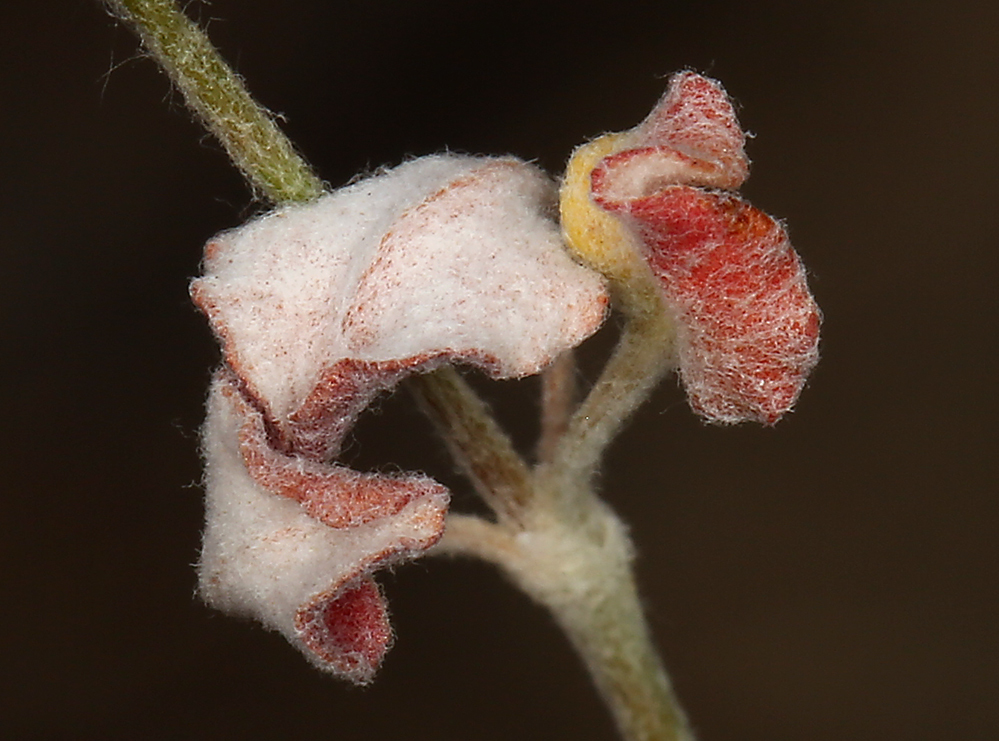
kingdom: Plantae
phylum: Tracheophyta
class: Magnoliopsida
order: Caryophyllales
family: Polygonaceae
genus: Eriogonum
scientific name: Eriogonum dasyanthemum
